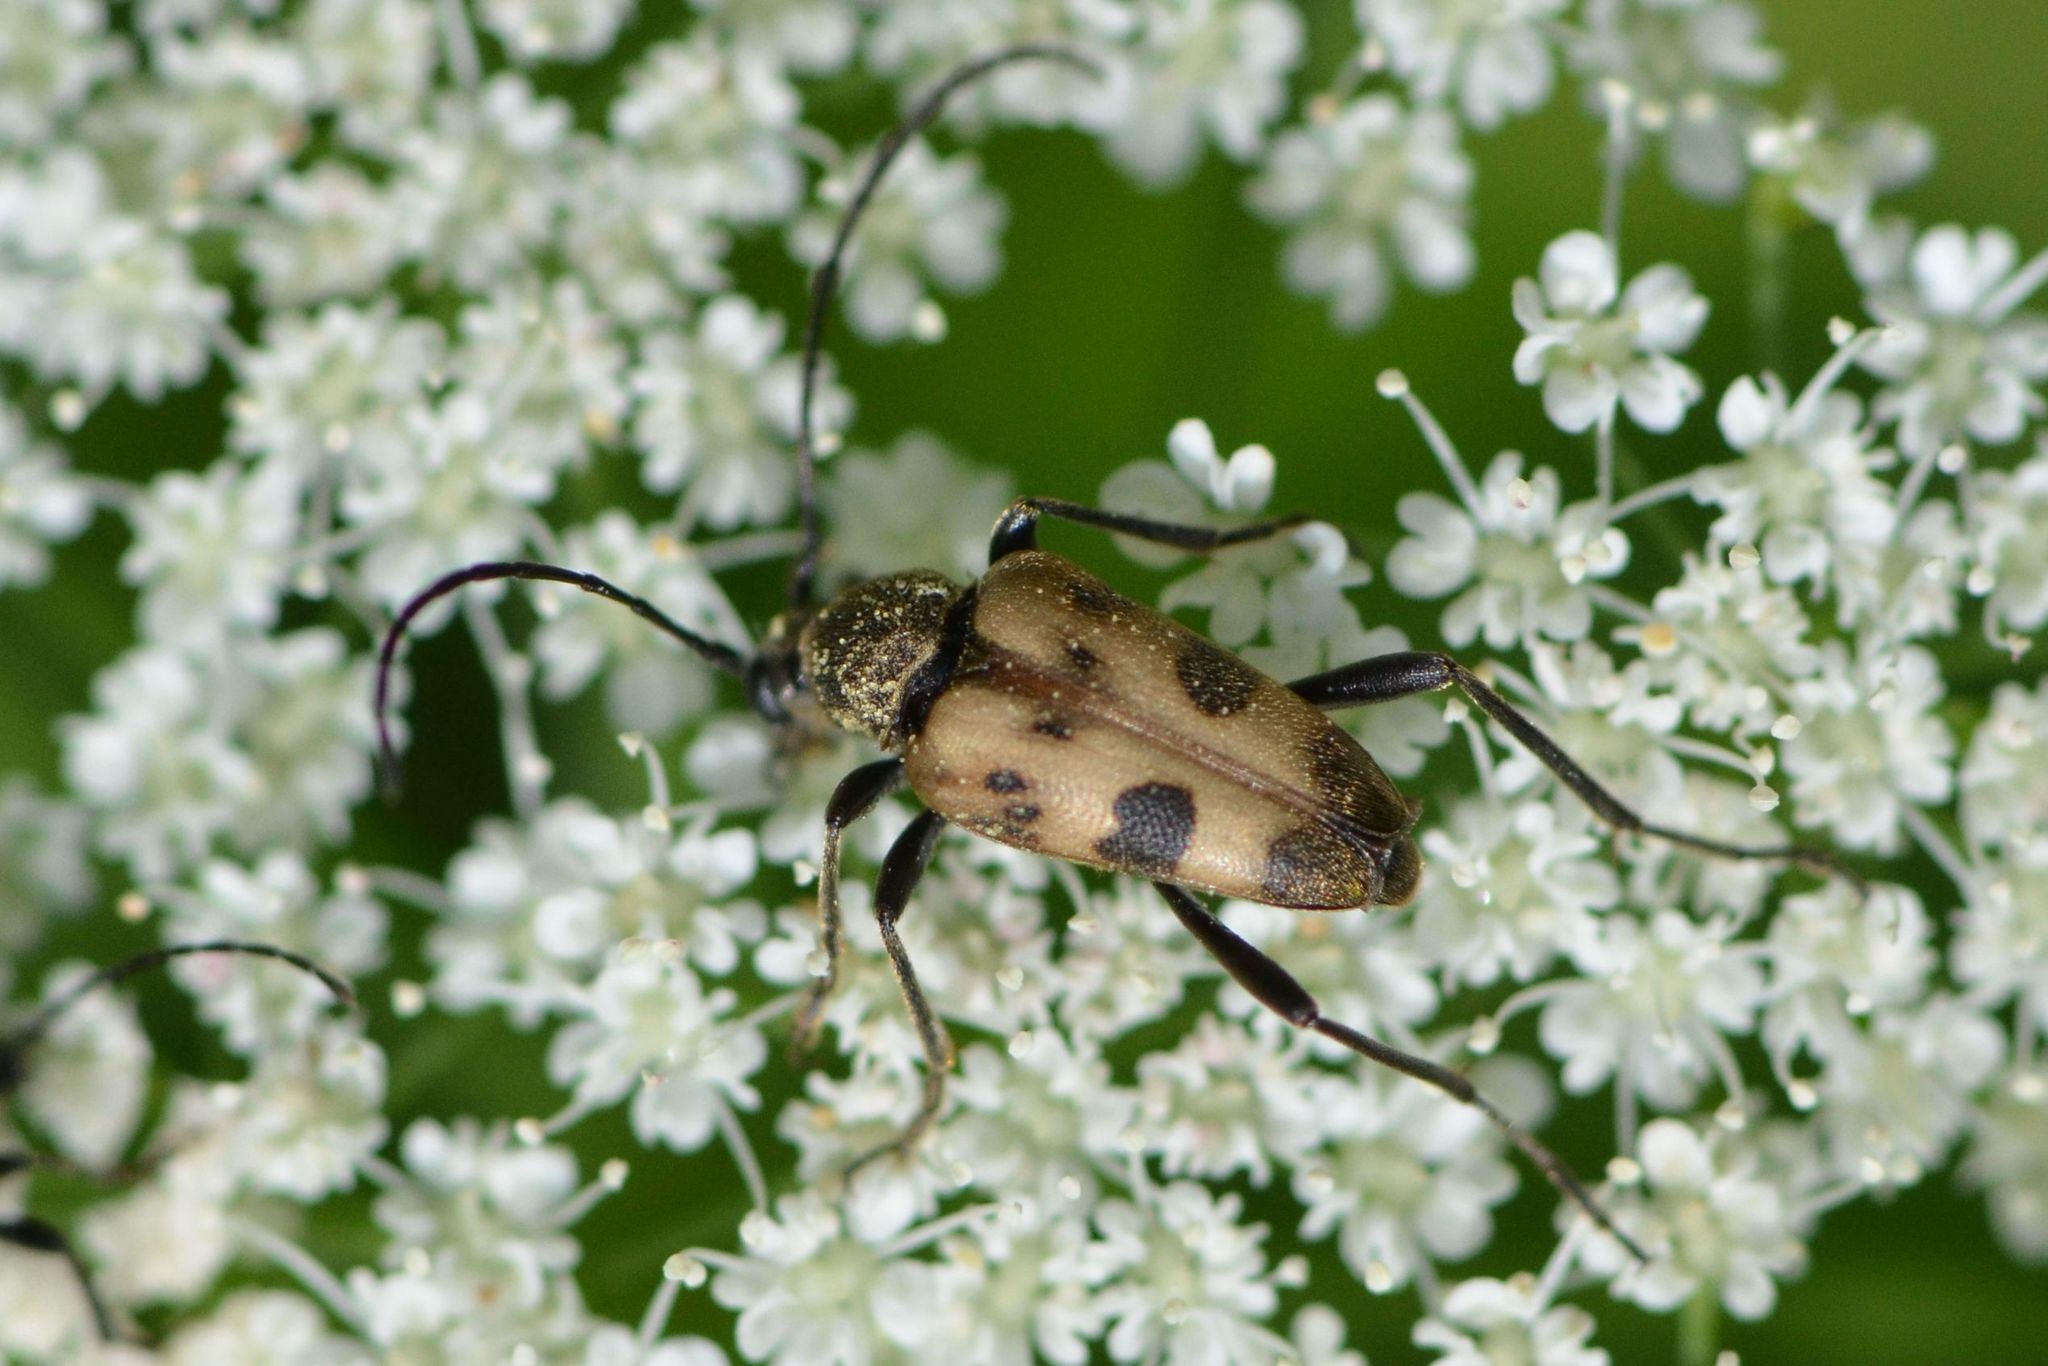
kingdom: Animalia
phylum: Arthropoda
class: Insecta
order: Coleoptera
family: Cerambycidae
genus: Pachytodes
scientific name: Pachytodes cerambyciformis
